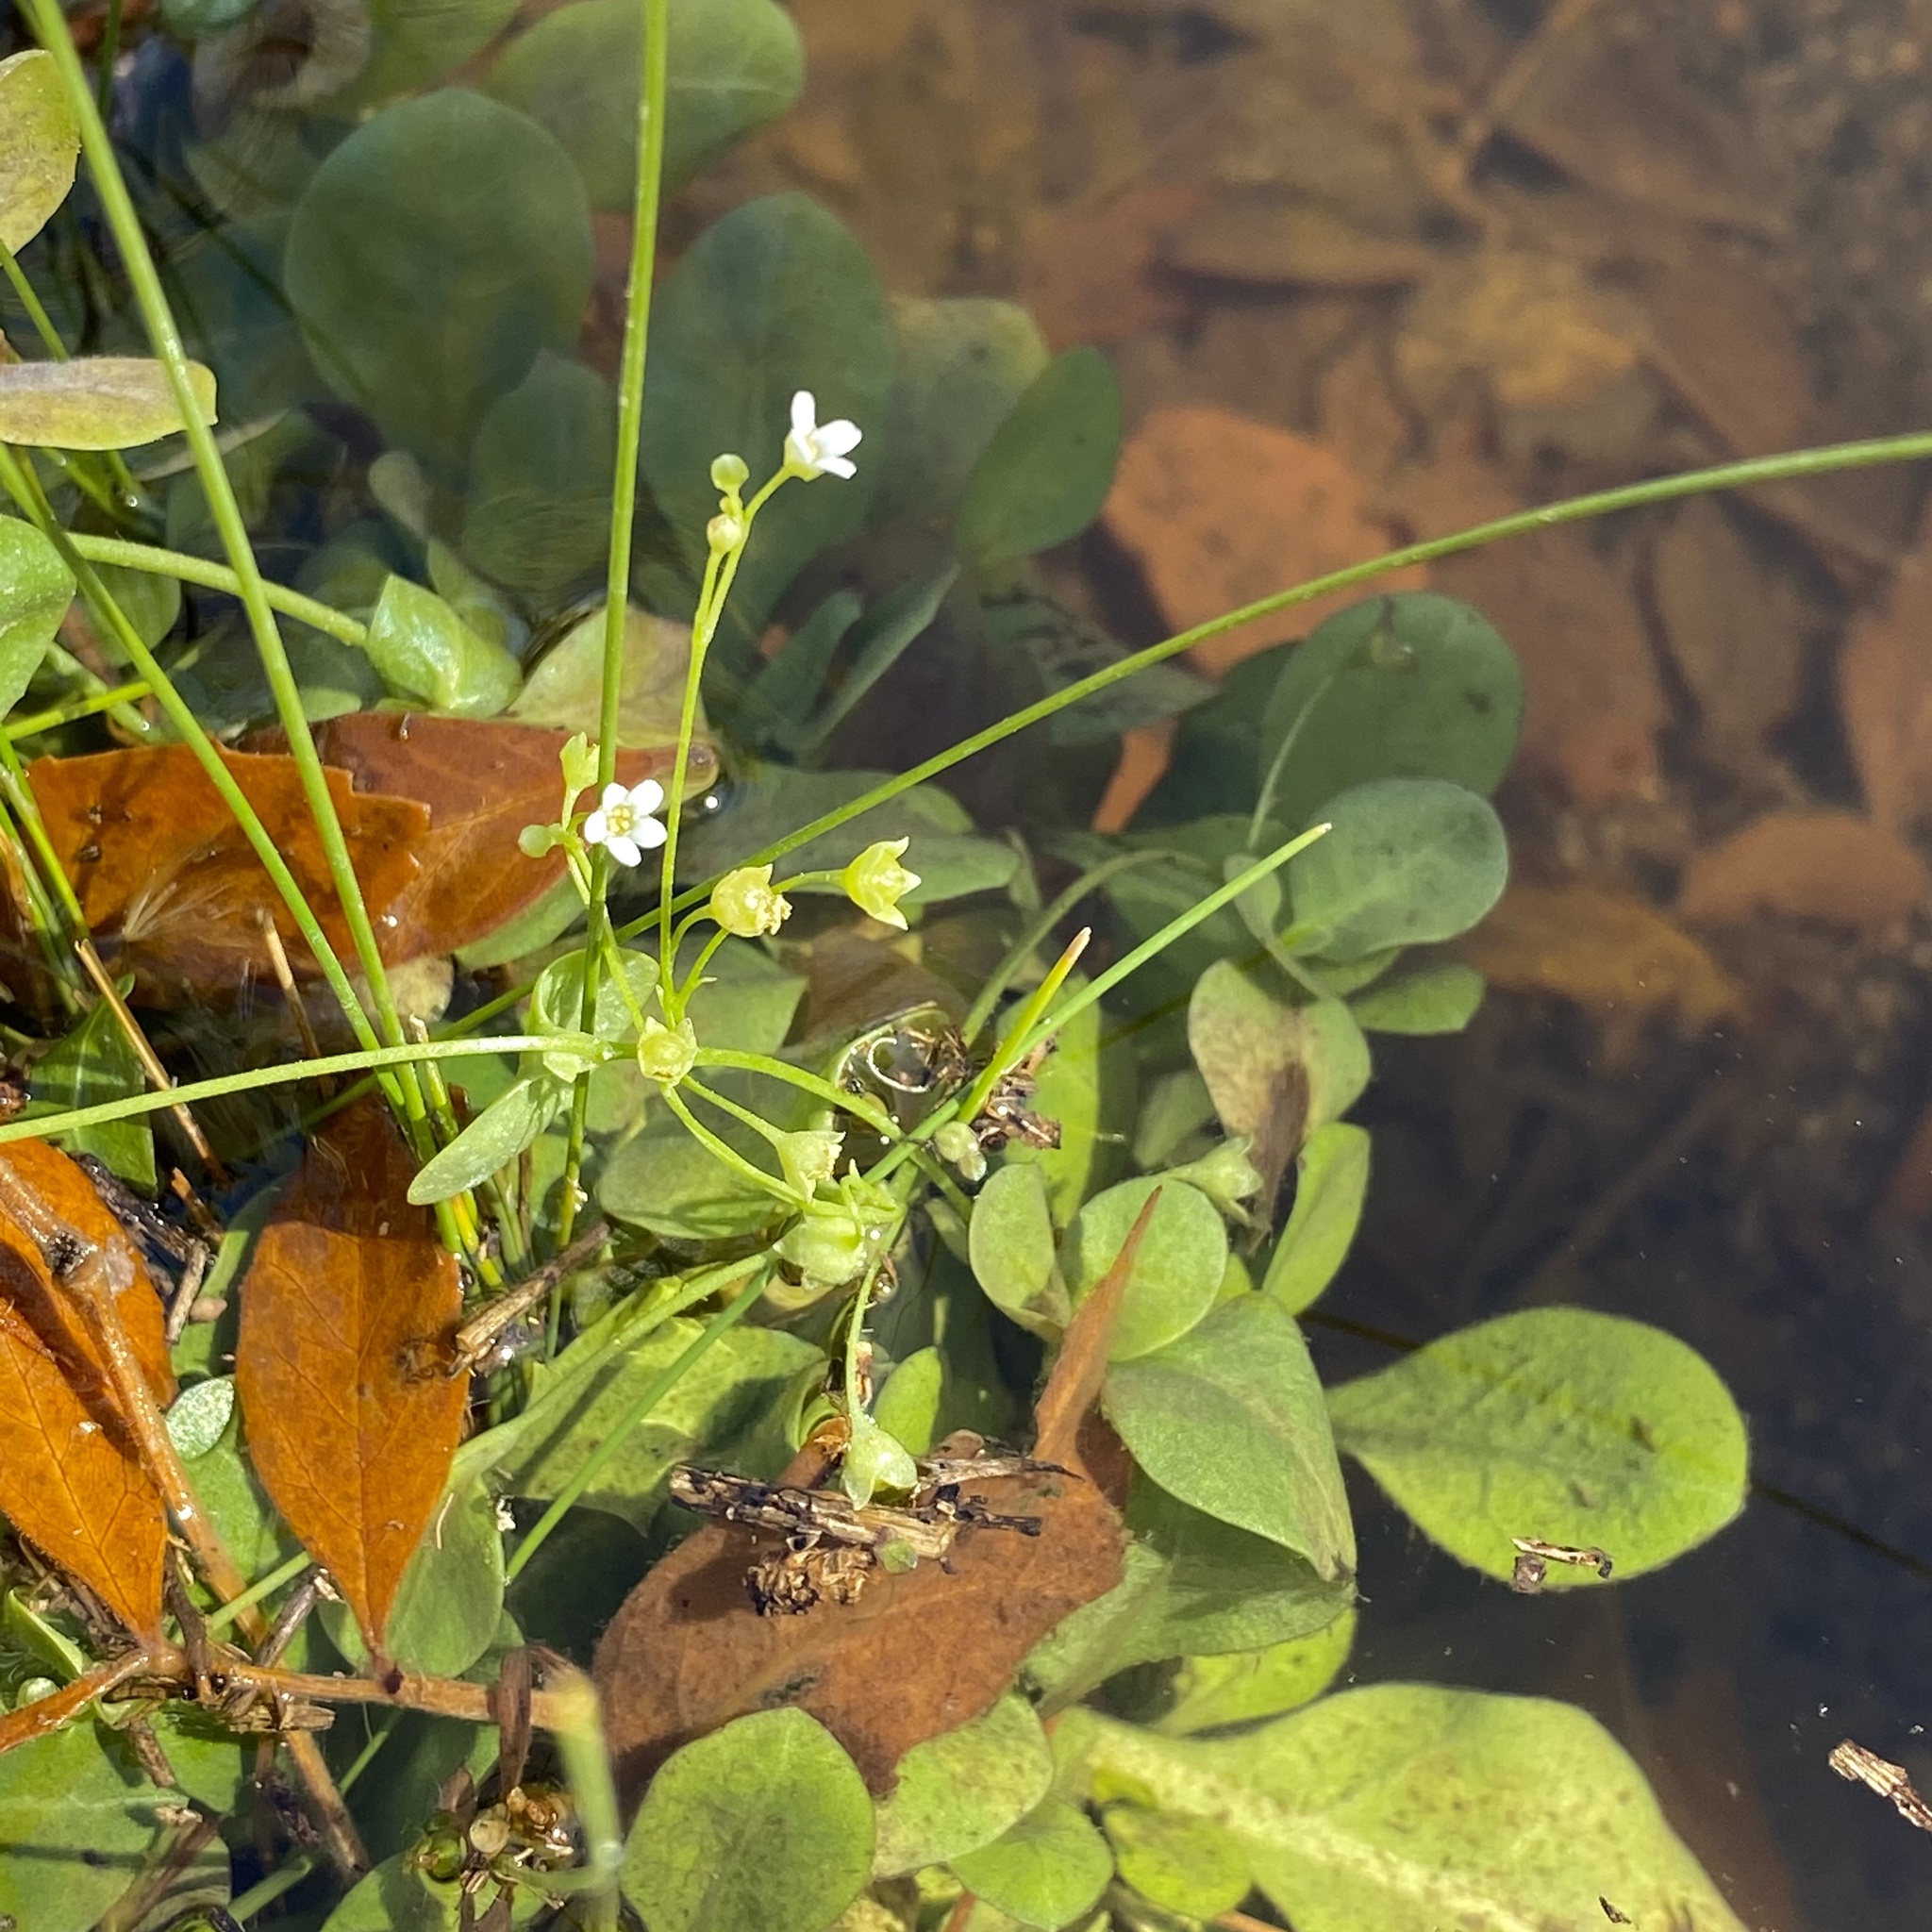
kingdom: Plantae
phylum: Tracheophyta
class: Magnoliopsida
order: Ericales
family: Primulaceae
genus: Samolus
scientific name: Samolus vagans
